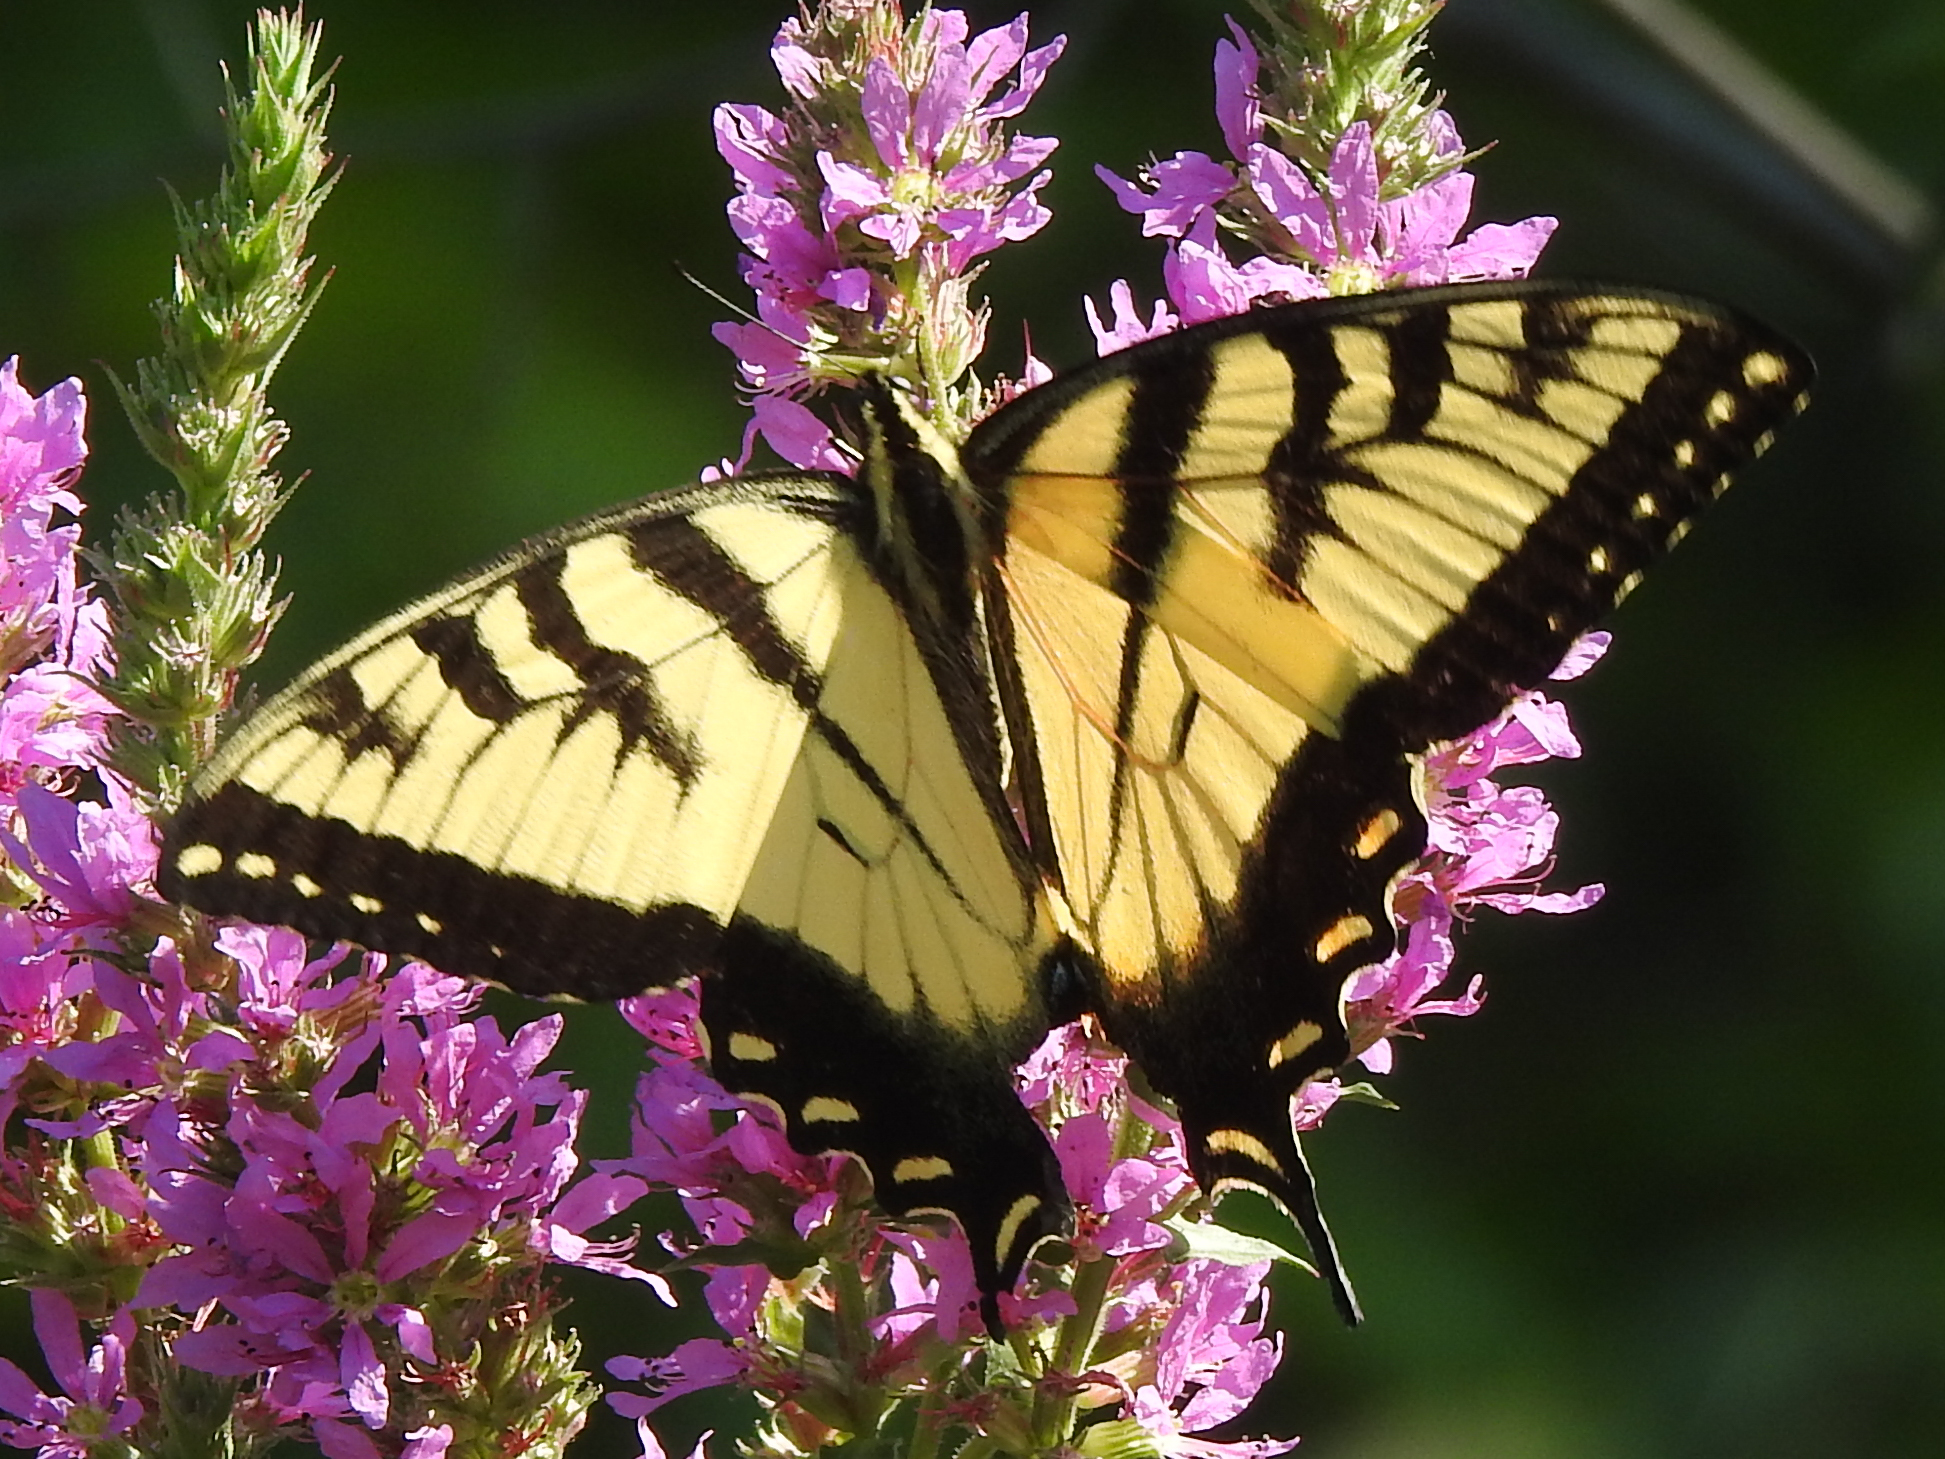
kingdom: Animalia
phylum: Arthropoda
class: Insecta
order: Lepidoptera
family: Papilionidae
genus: Papilio
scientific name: Papilio glaucus
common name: Tiger swallowtail
